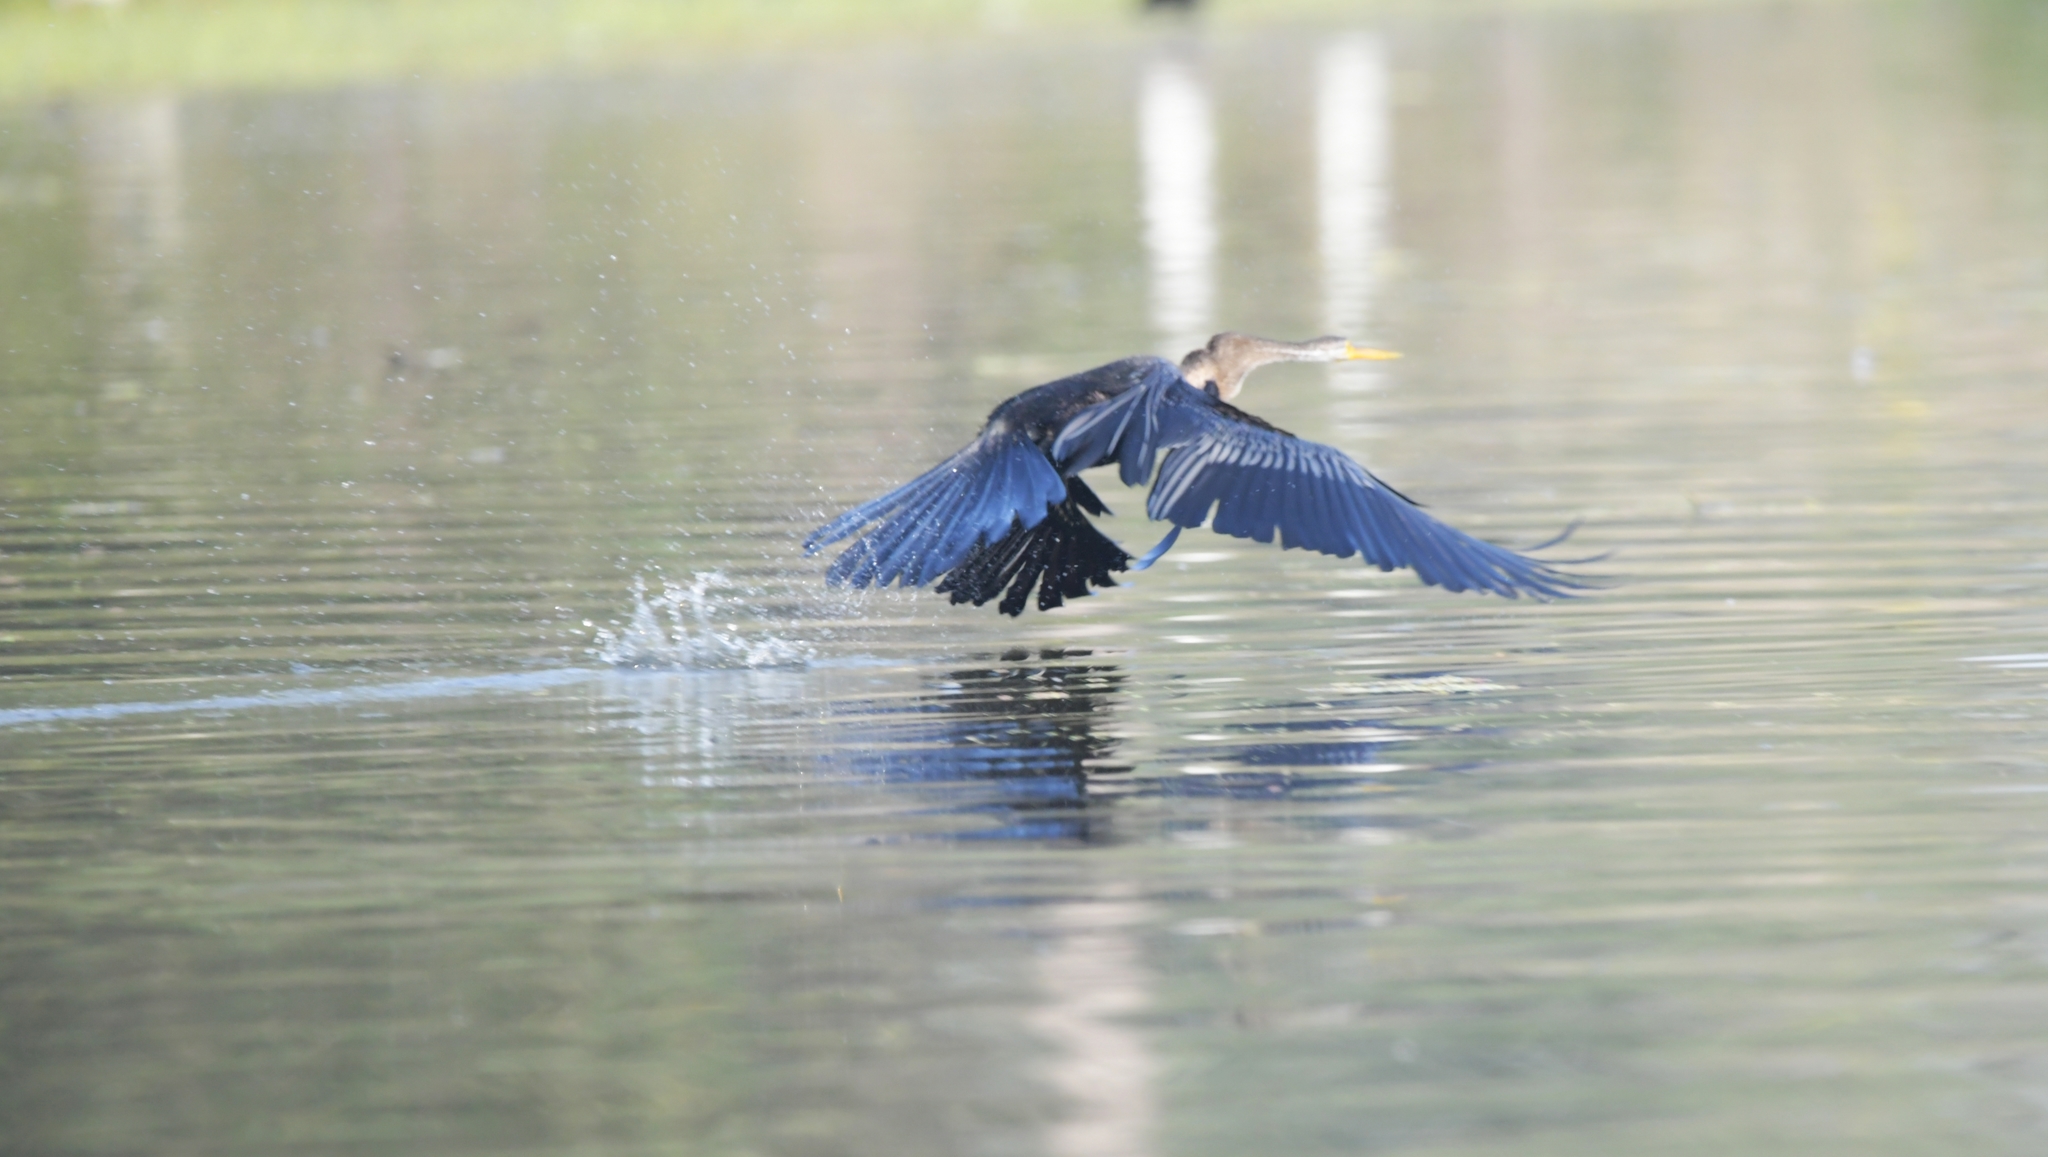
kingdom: Animalia
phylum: Chordata
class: Aves
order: Suliformes
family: Anhingidae
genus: Anhinga
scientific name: Anhinga melanogaster
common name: Oriental darter
